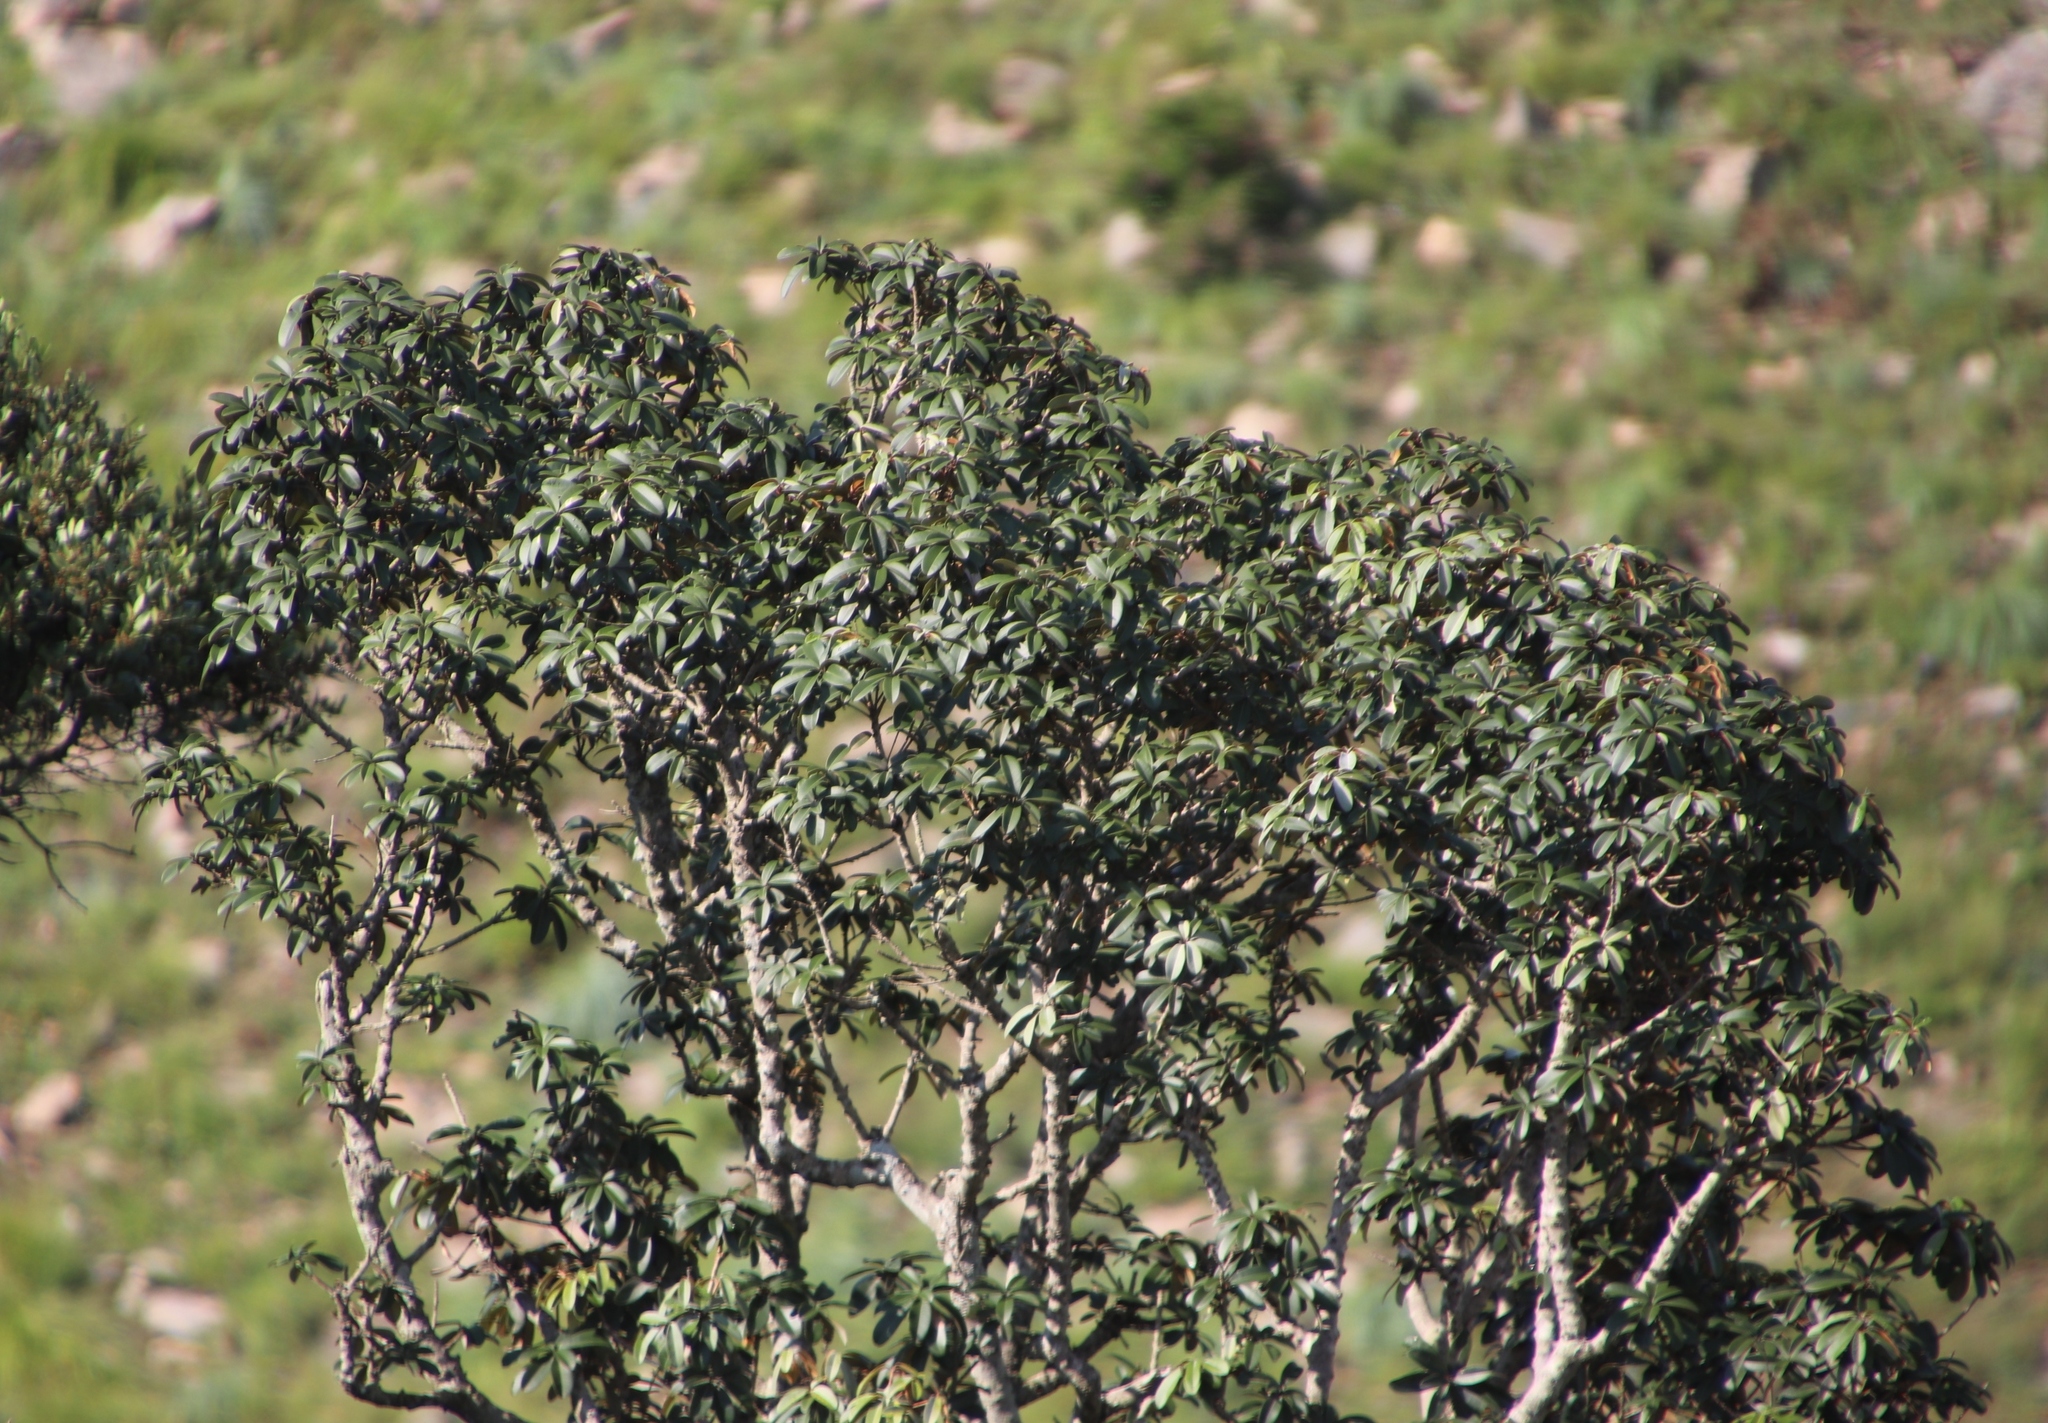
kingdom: Plantae
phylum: Tracheophyta
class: Magnoliopsida
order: Ericales
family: Sapotaceae
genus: Englerophytum
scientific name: Englerophytum magalismontanum
